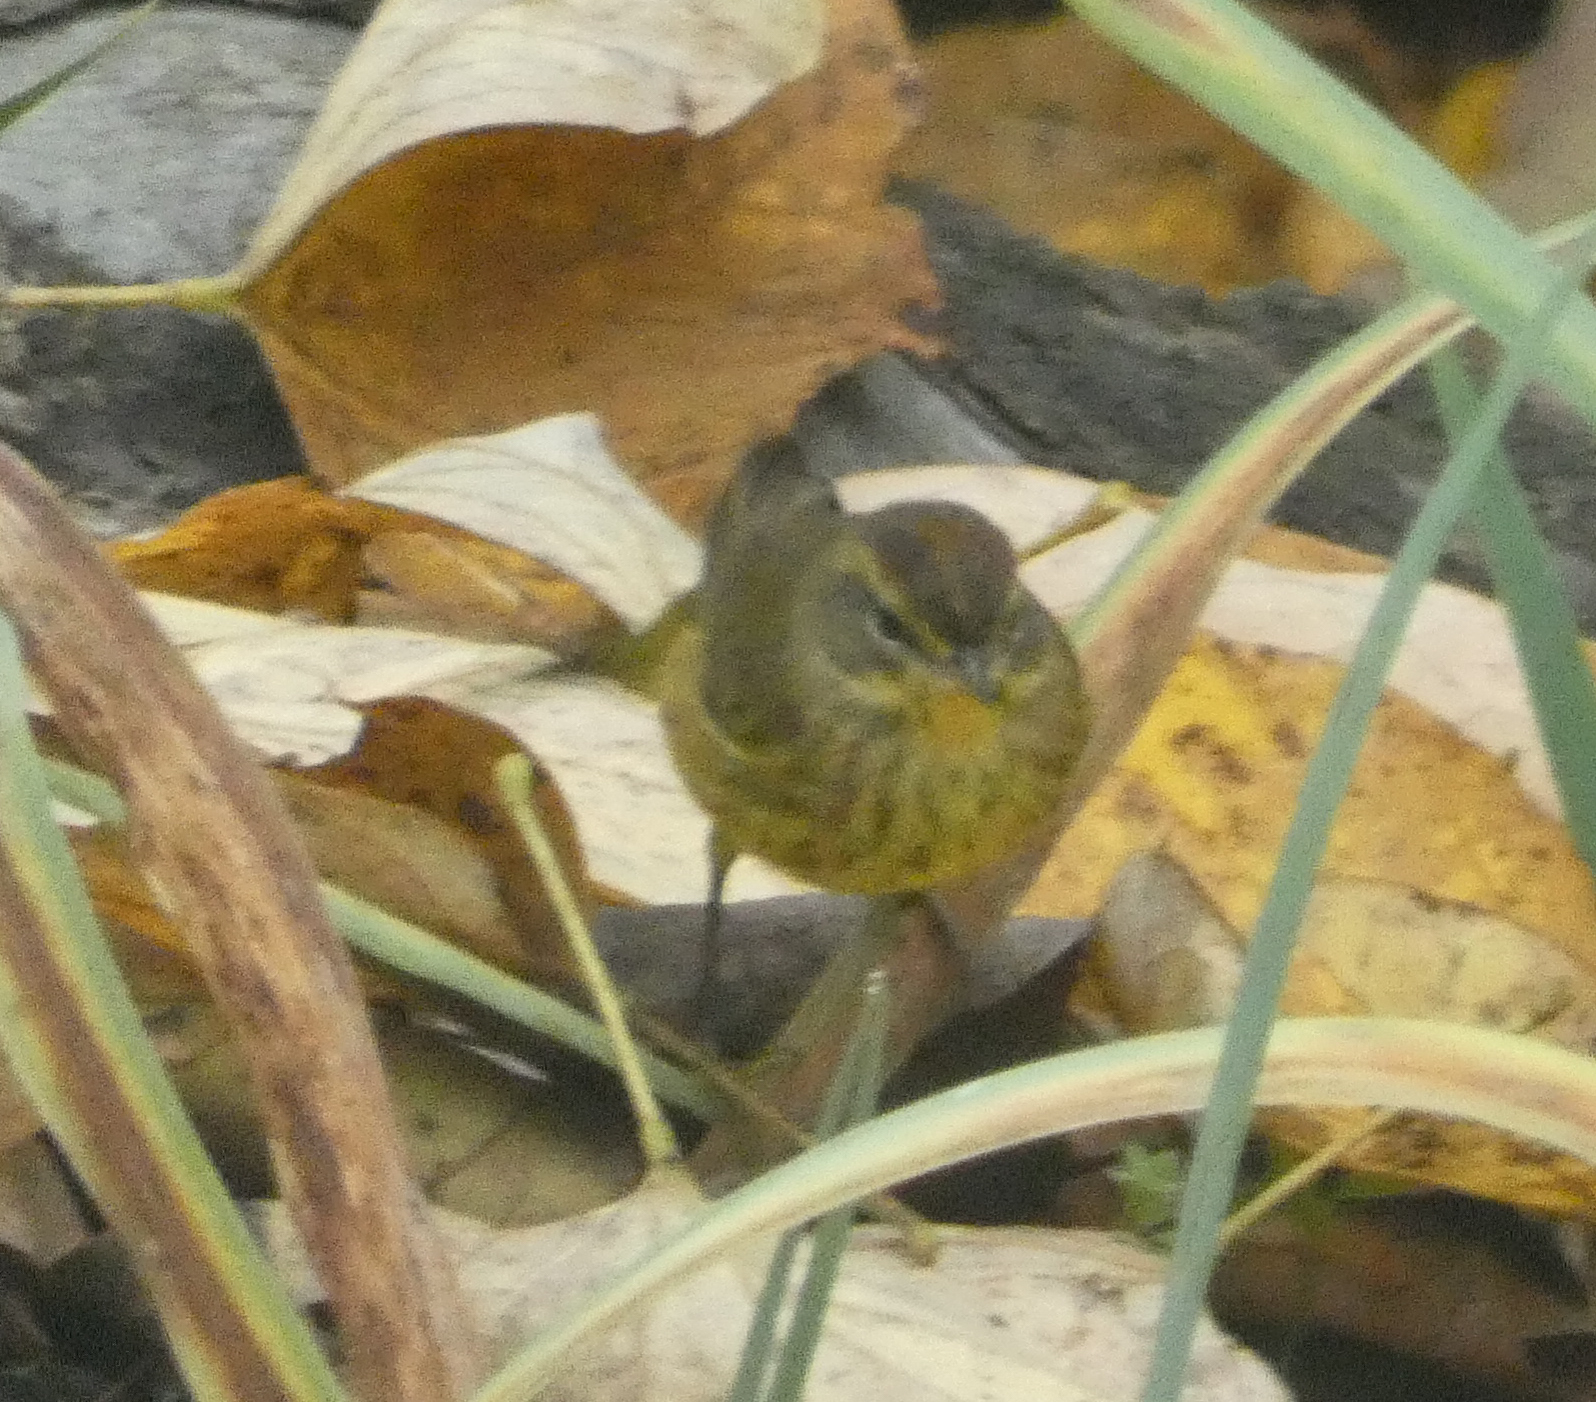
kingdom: Animalia
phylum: Chordata
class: Aves
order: Passeriformes
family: Parulidae
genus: Setophaga
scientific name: Setophaga palmarum
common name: Palm warbler
